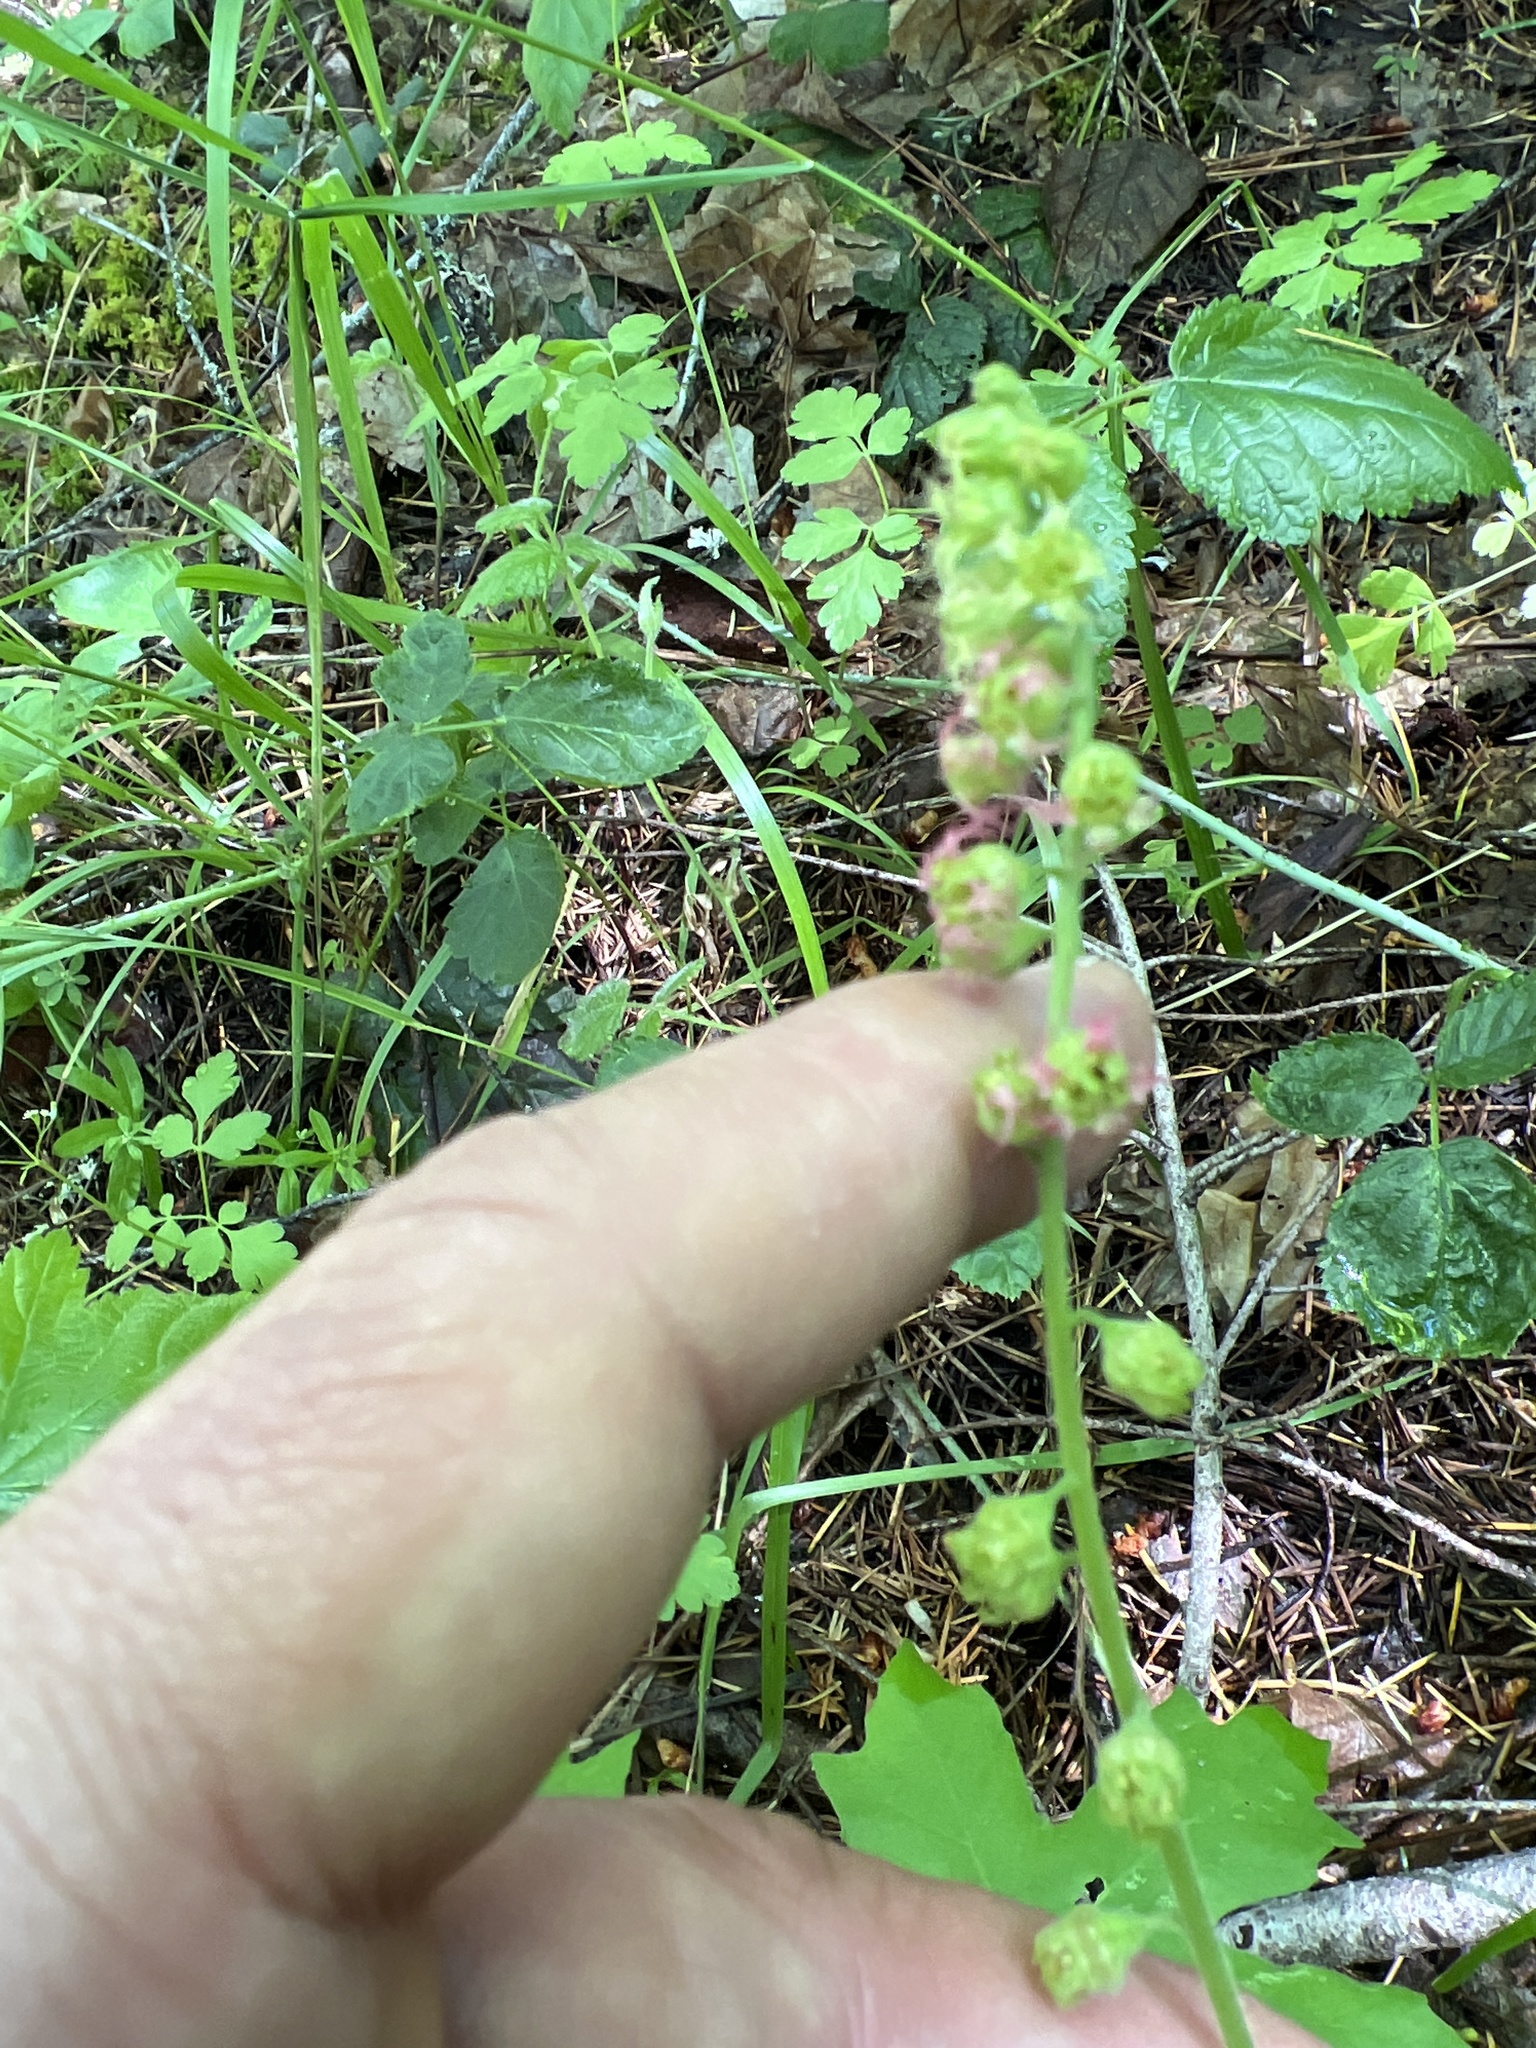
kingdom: Plantae
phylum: Tracheophyta
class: Magnoliopsida
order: Saxifragales
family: Saxifragaceae
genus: Tellima
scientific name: Tellima grandiflora
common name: Fringecups
